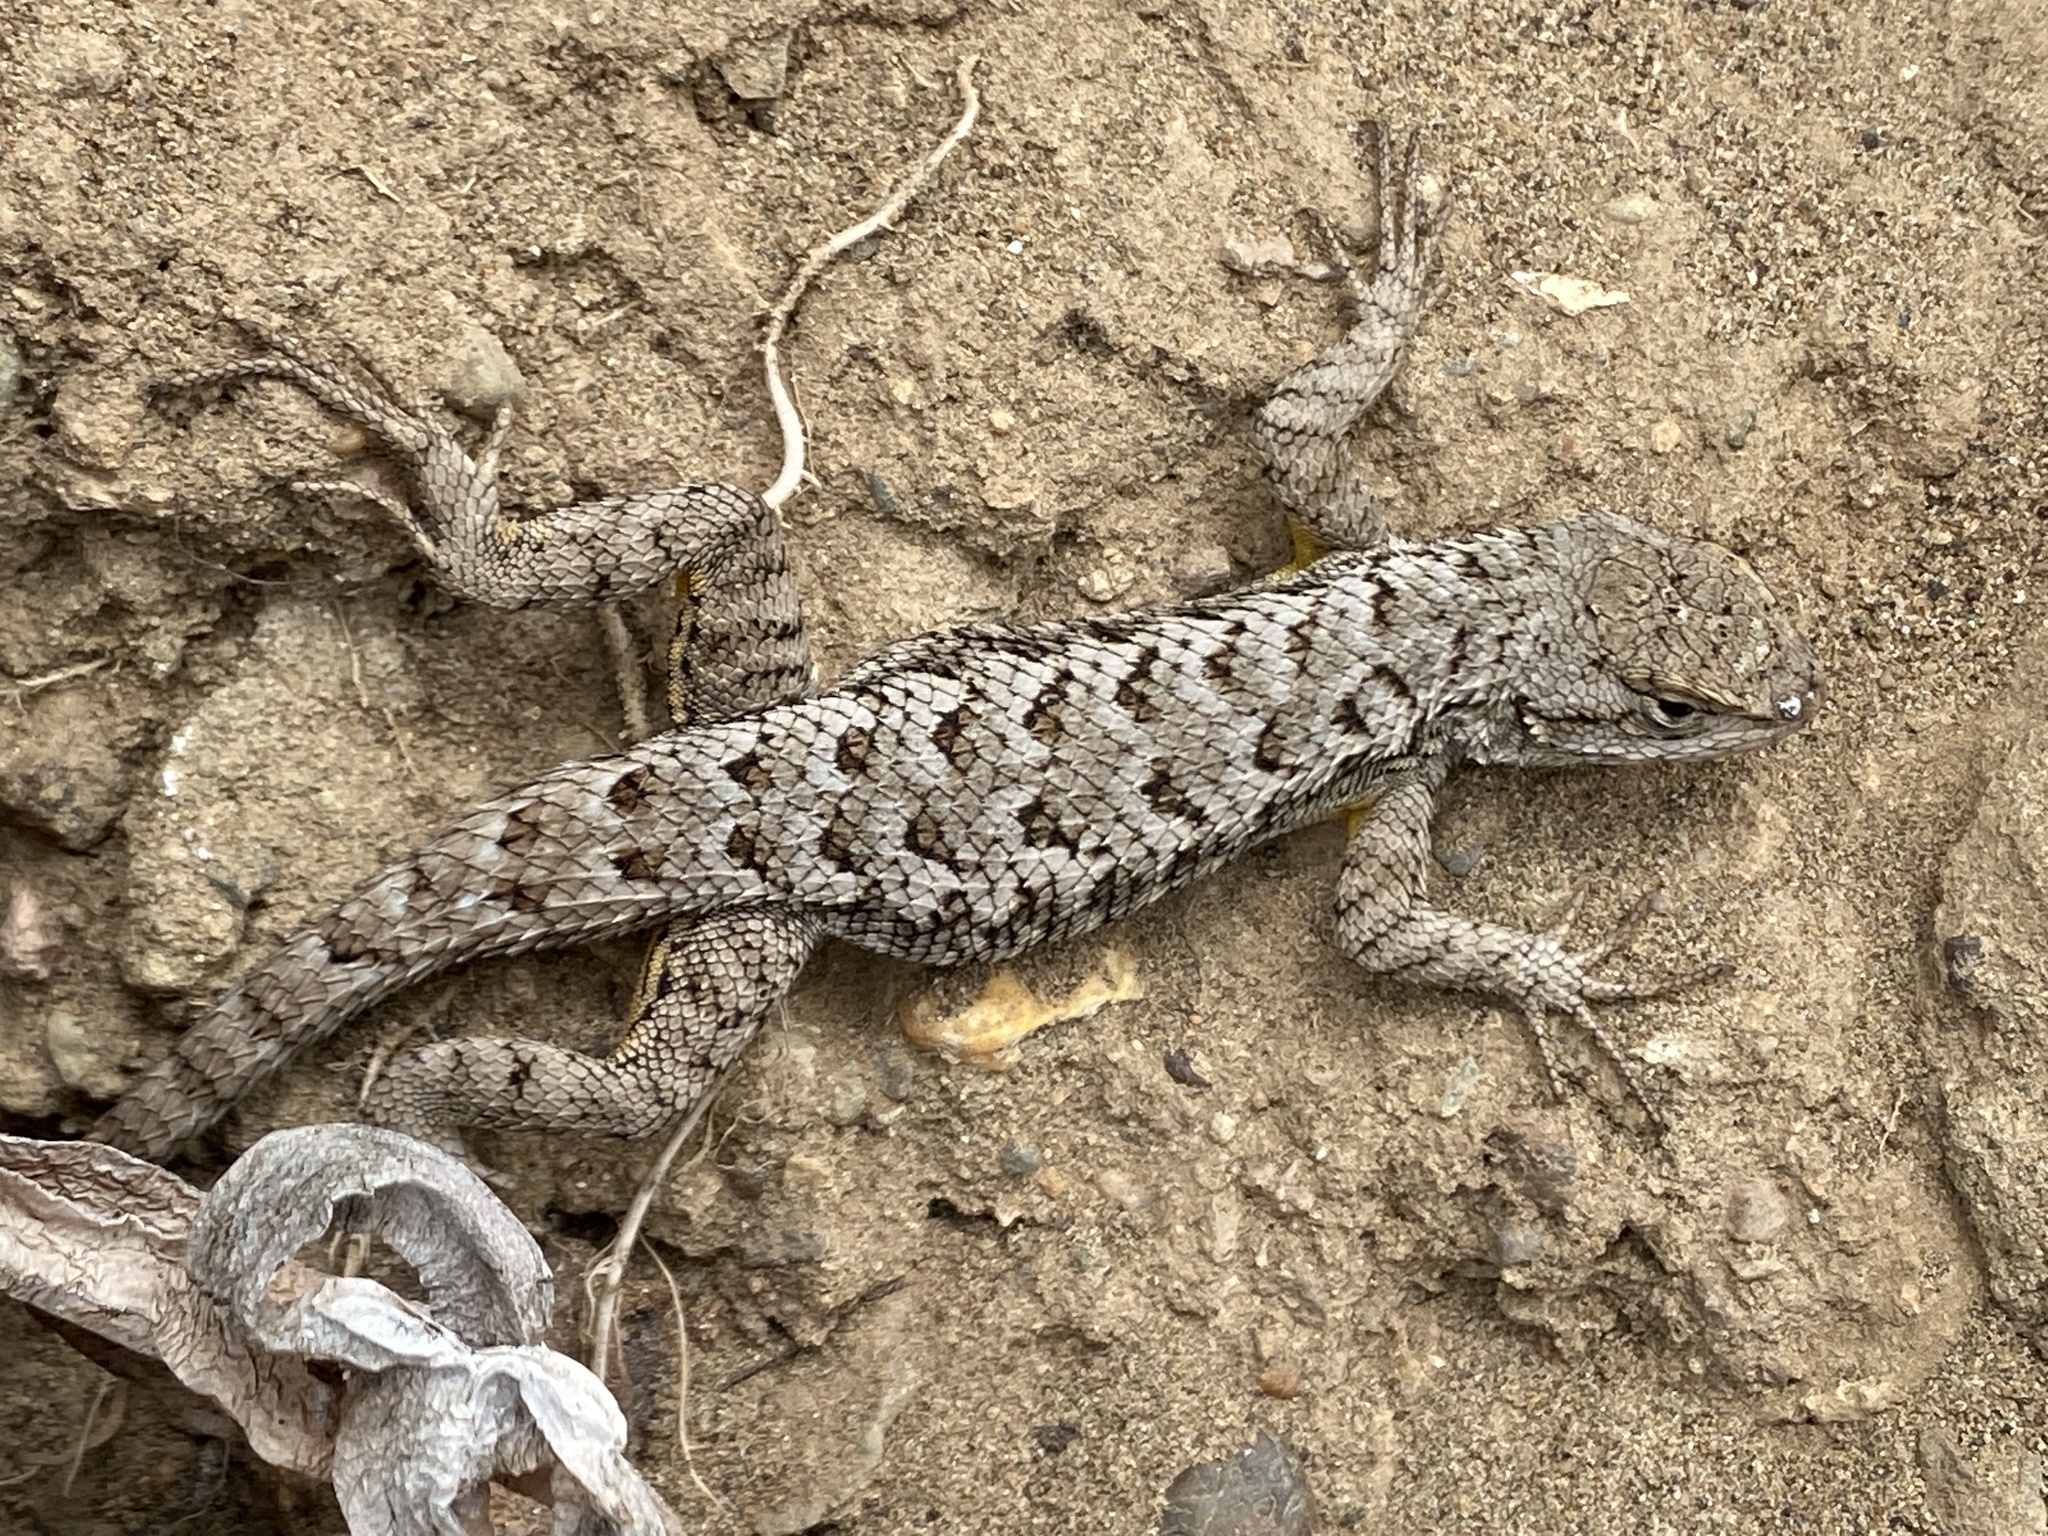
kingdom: Animalia
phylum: Chordata
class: Squamata
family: Phrynosomatidae
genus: Sceloporus
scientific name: Sceloporus occidentalis
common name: Western fence lizard
